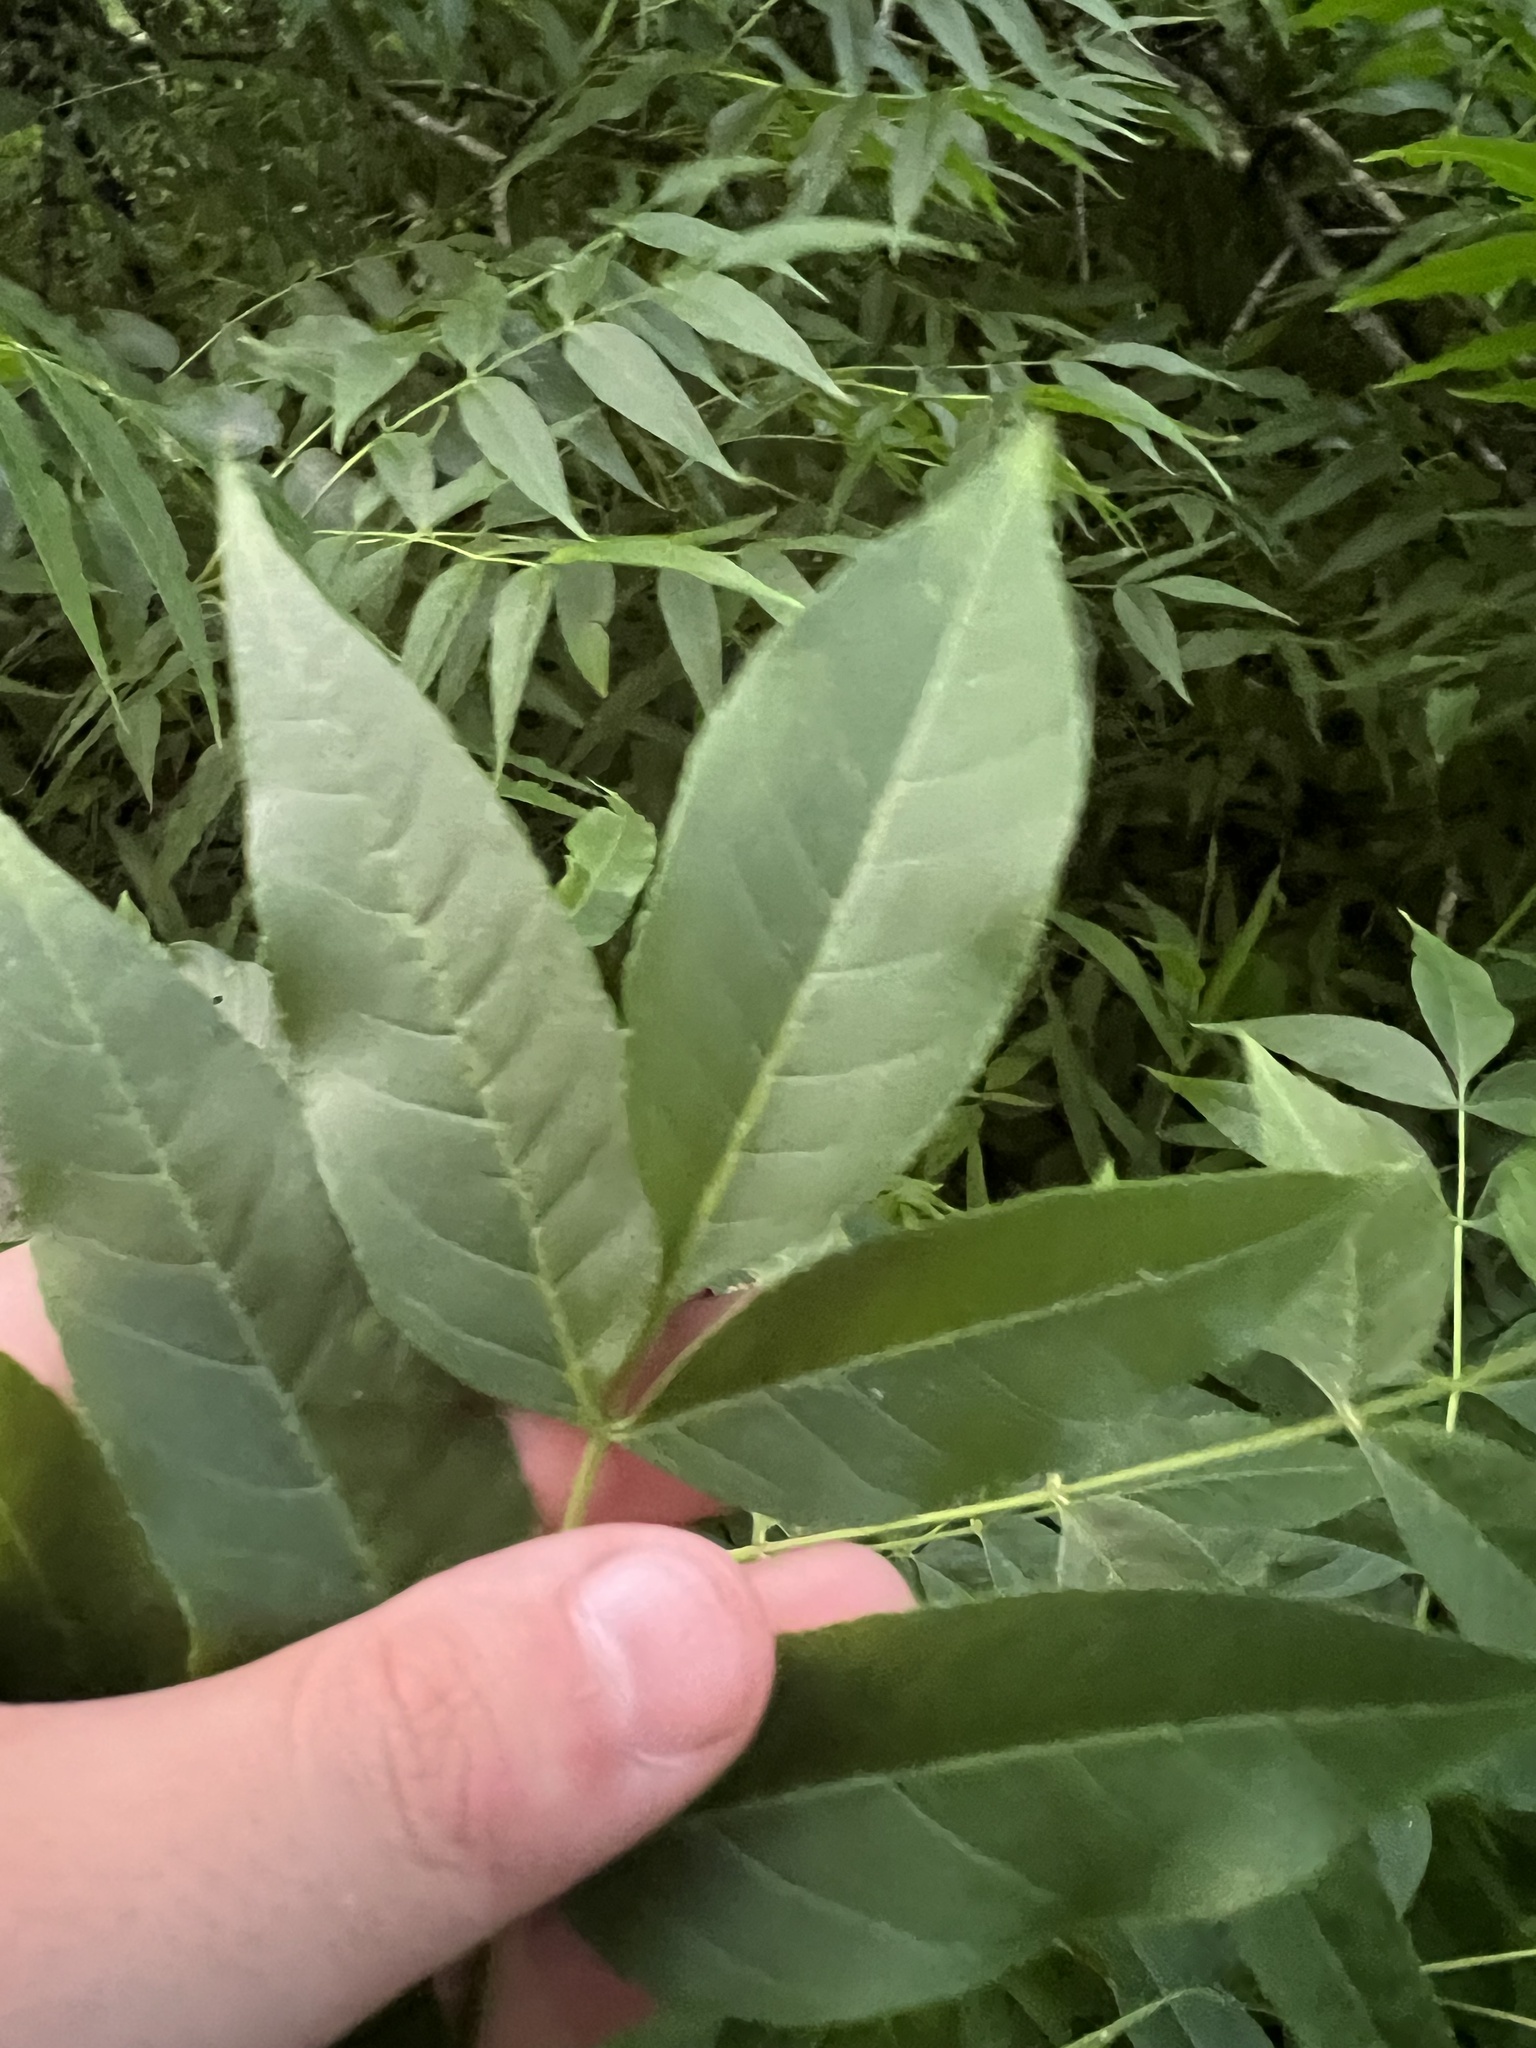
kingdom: Plantae
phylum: Tracheophyta
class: Magnoliopsida
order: Lamiales
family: Oleaceae
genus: Fraxinus
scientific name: Fraxinus quadrangulata
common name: Blue ash
